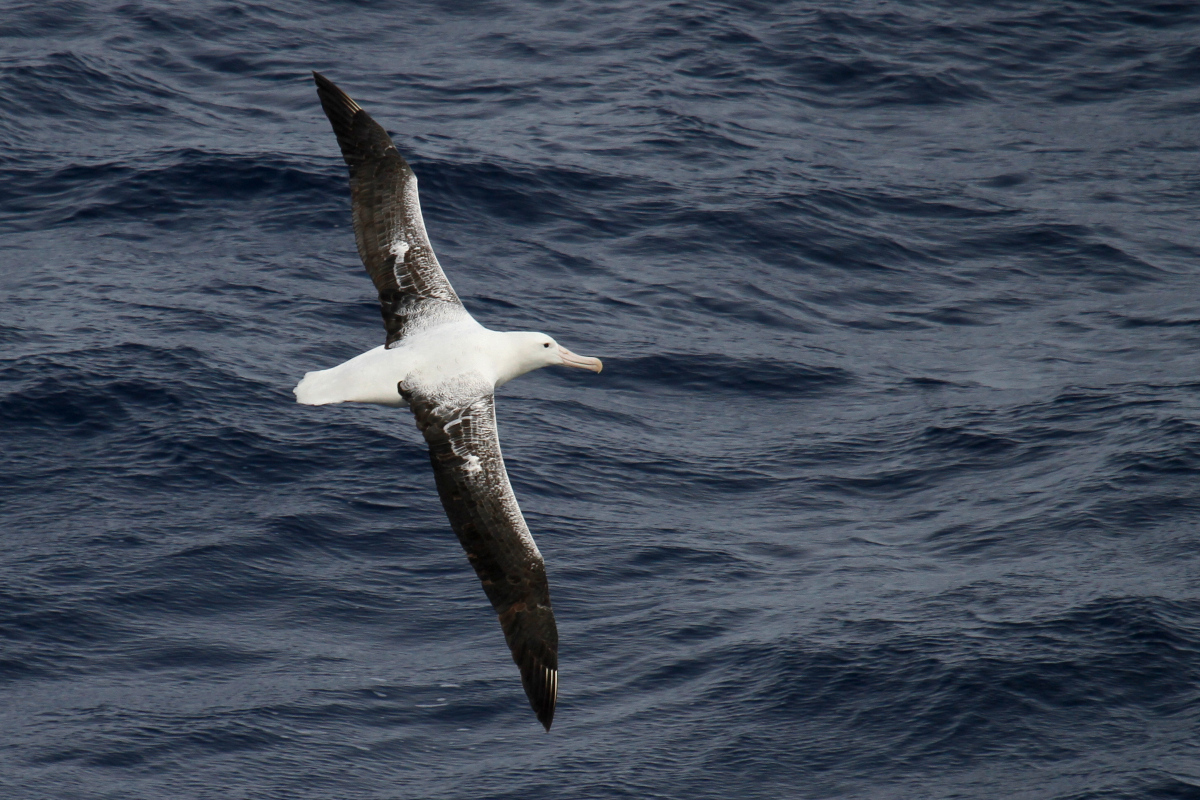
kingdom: Animalia
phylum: Chordata
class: Aves
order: Procellariiformes
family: Diomedeidae
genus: Diomedea
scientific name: Diomedea epomophora
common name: Southern royal albatross
